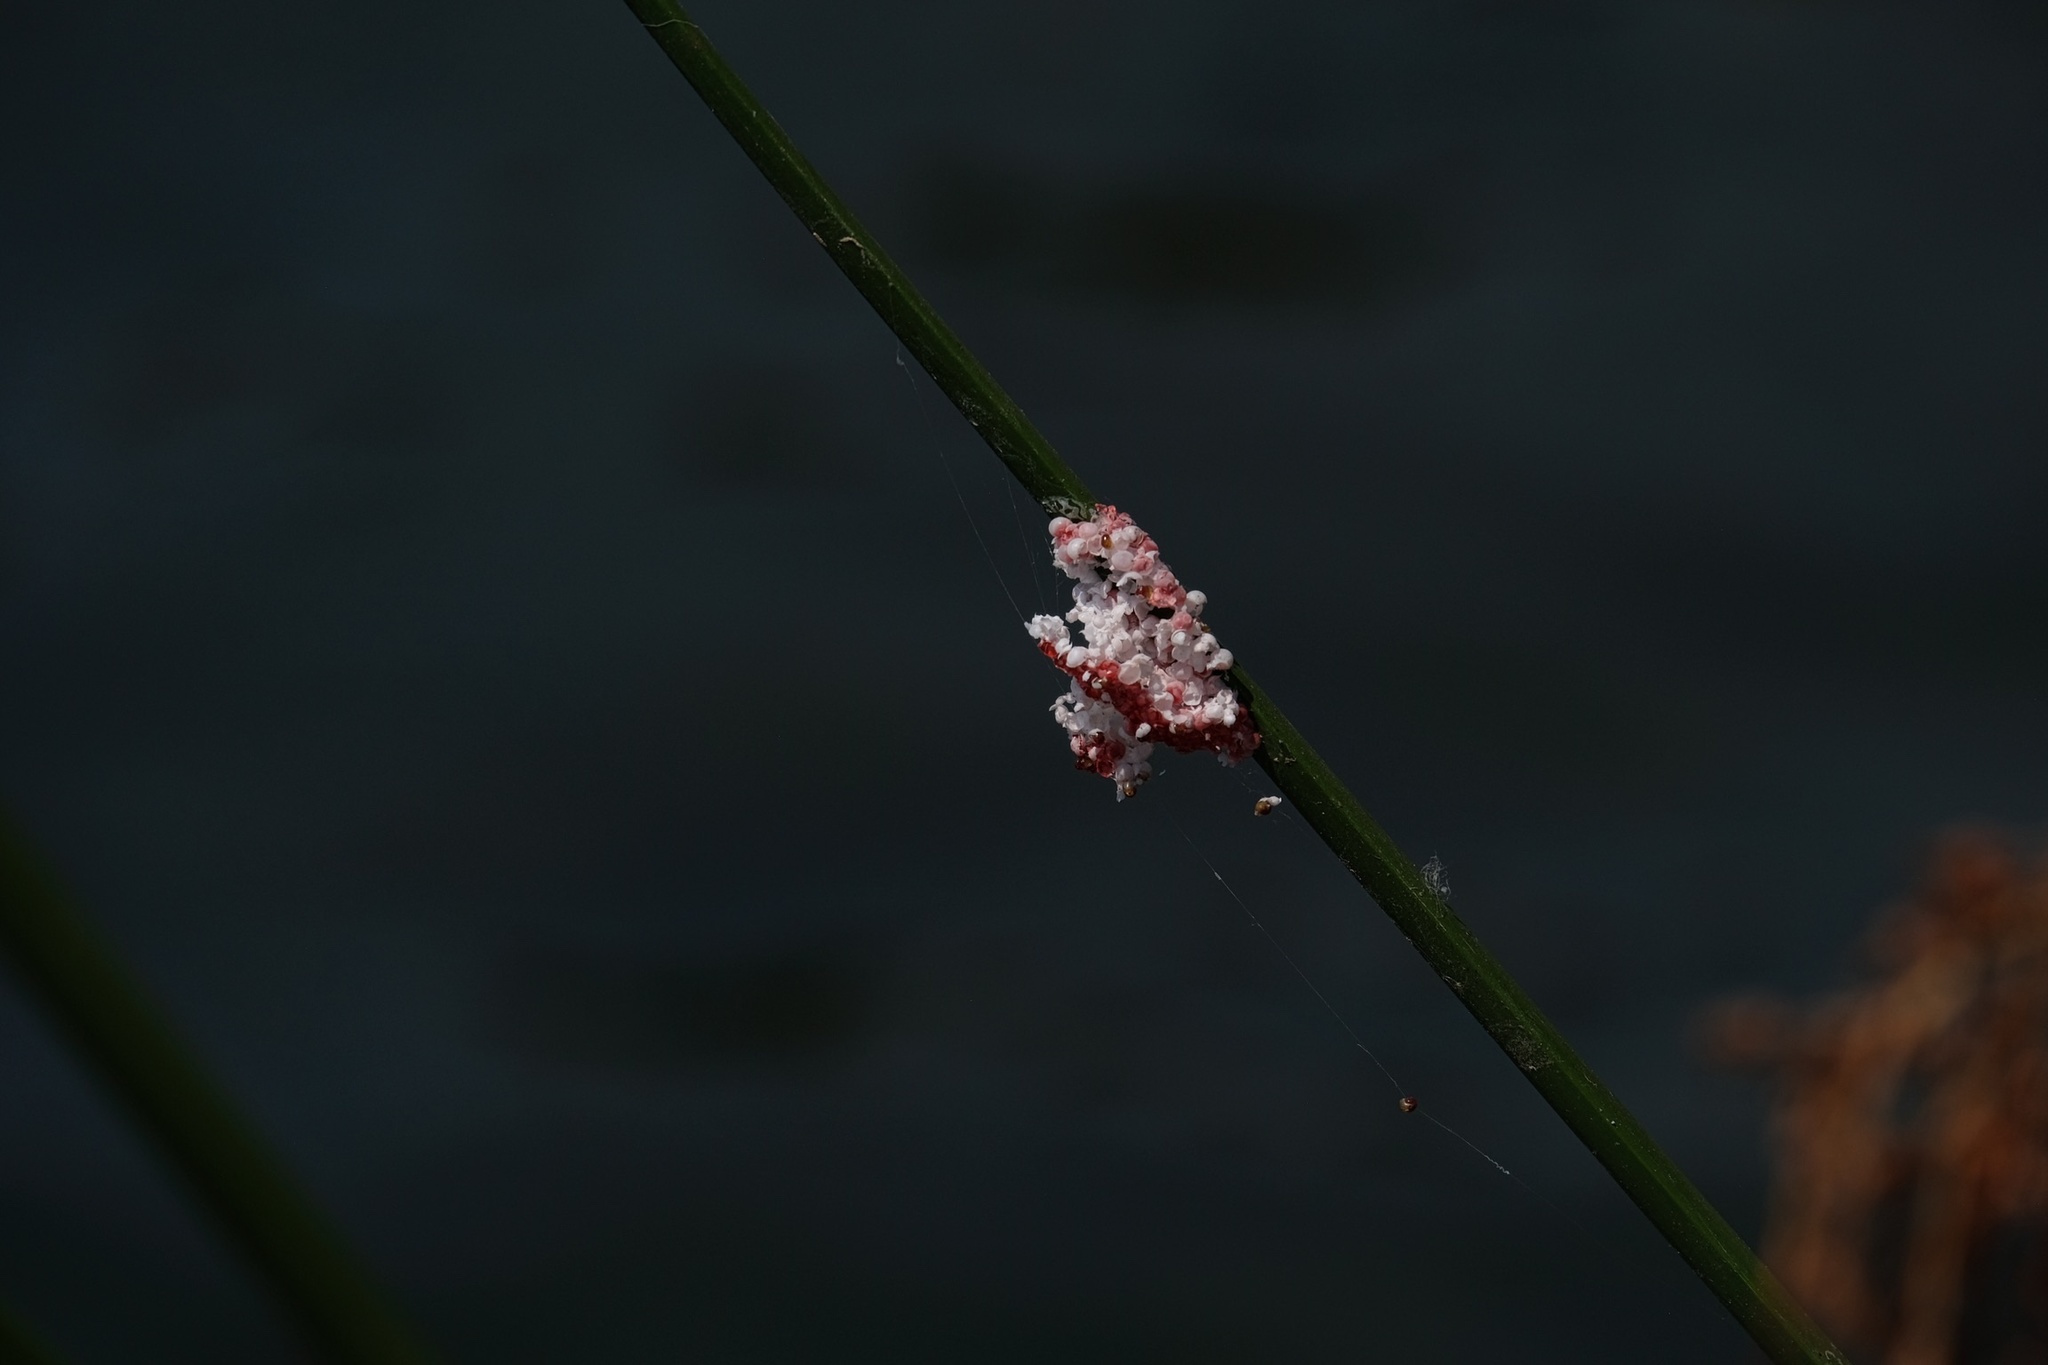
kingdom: Animalia
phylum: Mollusca
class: Gastropoda
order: Architaenioglossa
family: Ampullariidae
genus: Pomacea
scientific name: Pomacea canaliculata
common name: Channeled applesnail
